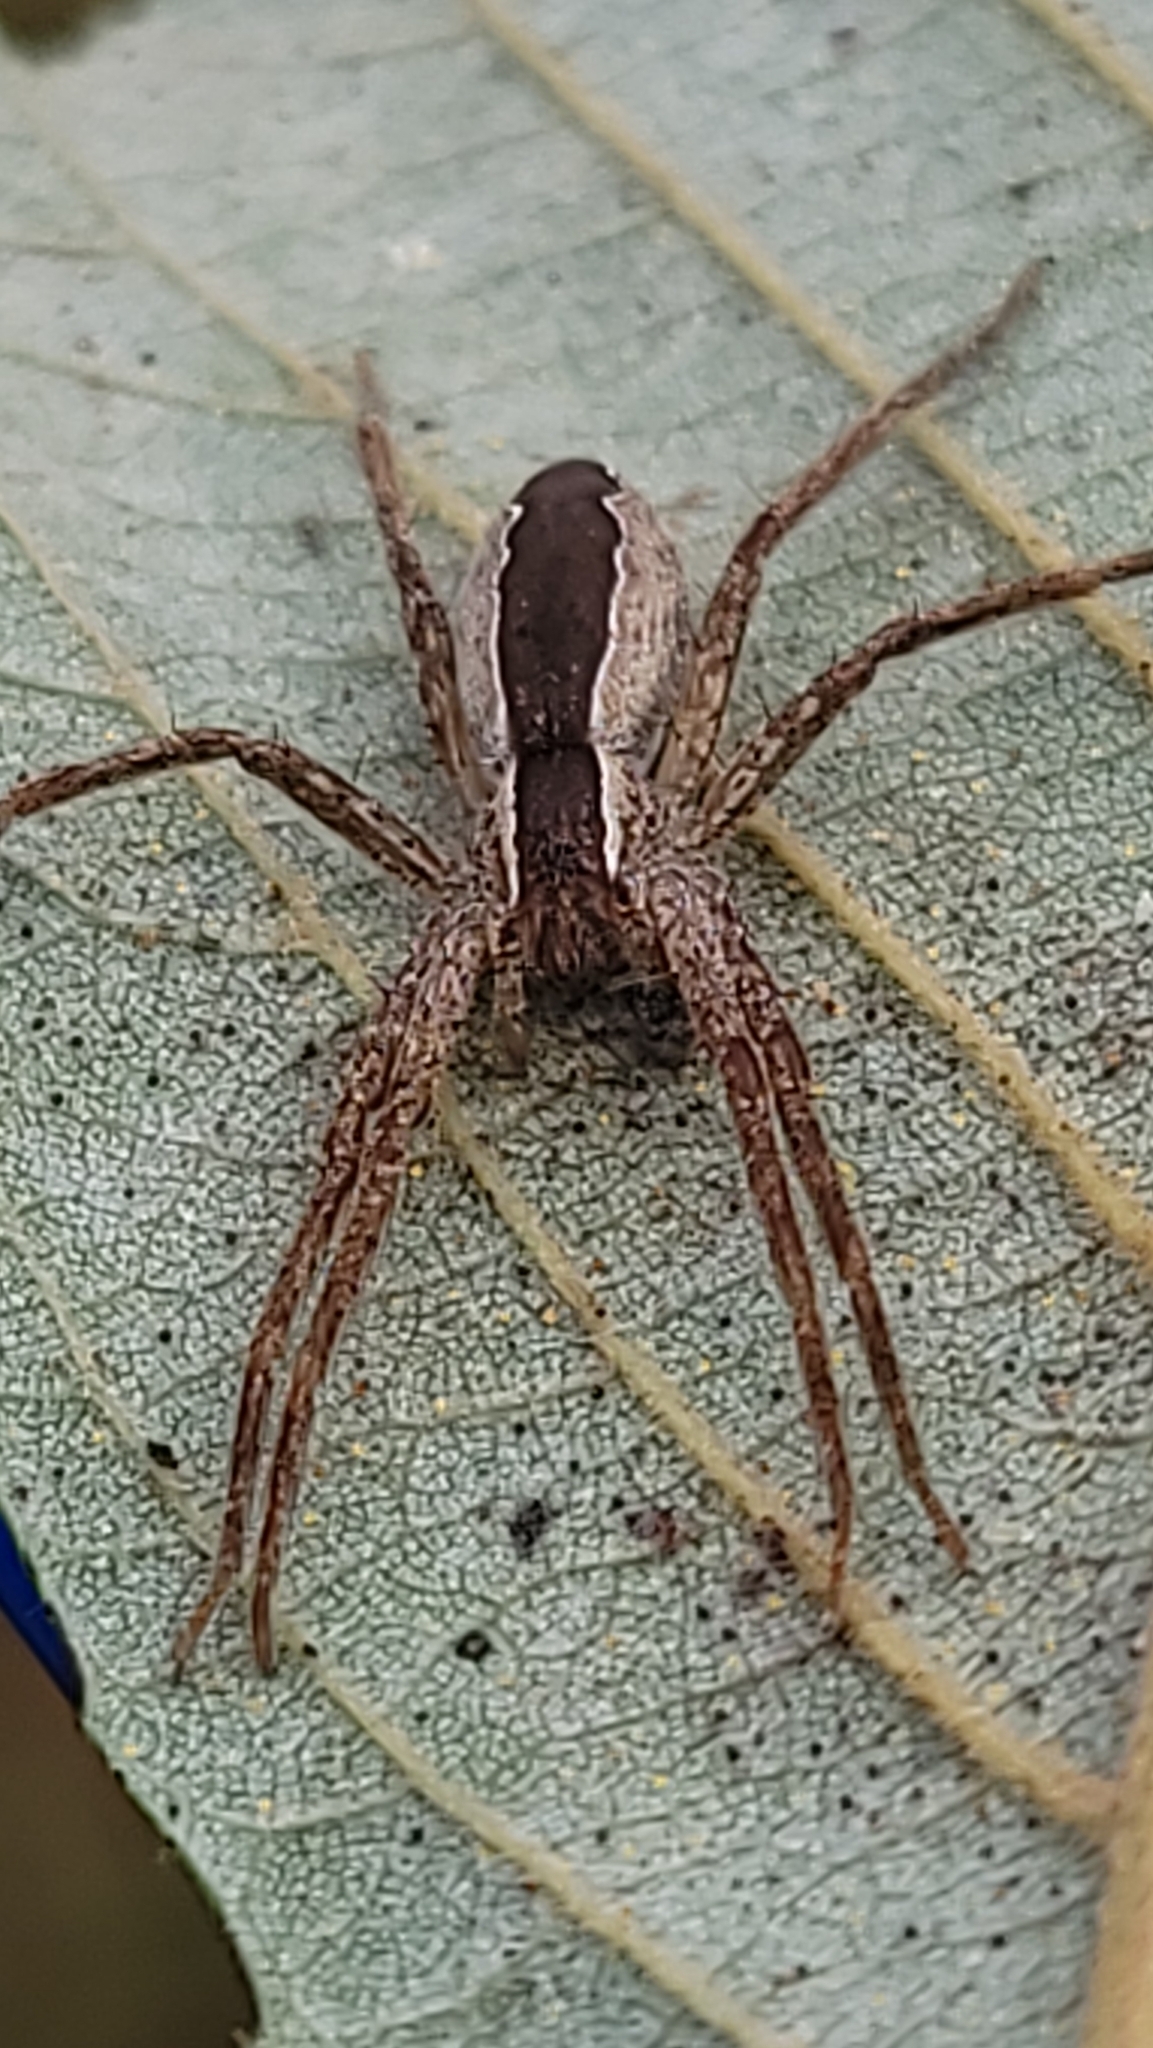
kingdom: Animalia
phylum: Arthropoda
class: Arachnida
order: Araneae
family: Pisauridae
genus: Pisaurina
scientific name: Pisaurina mira
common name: American nursery web spider
